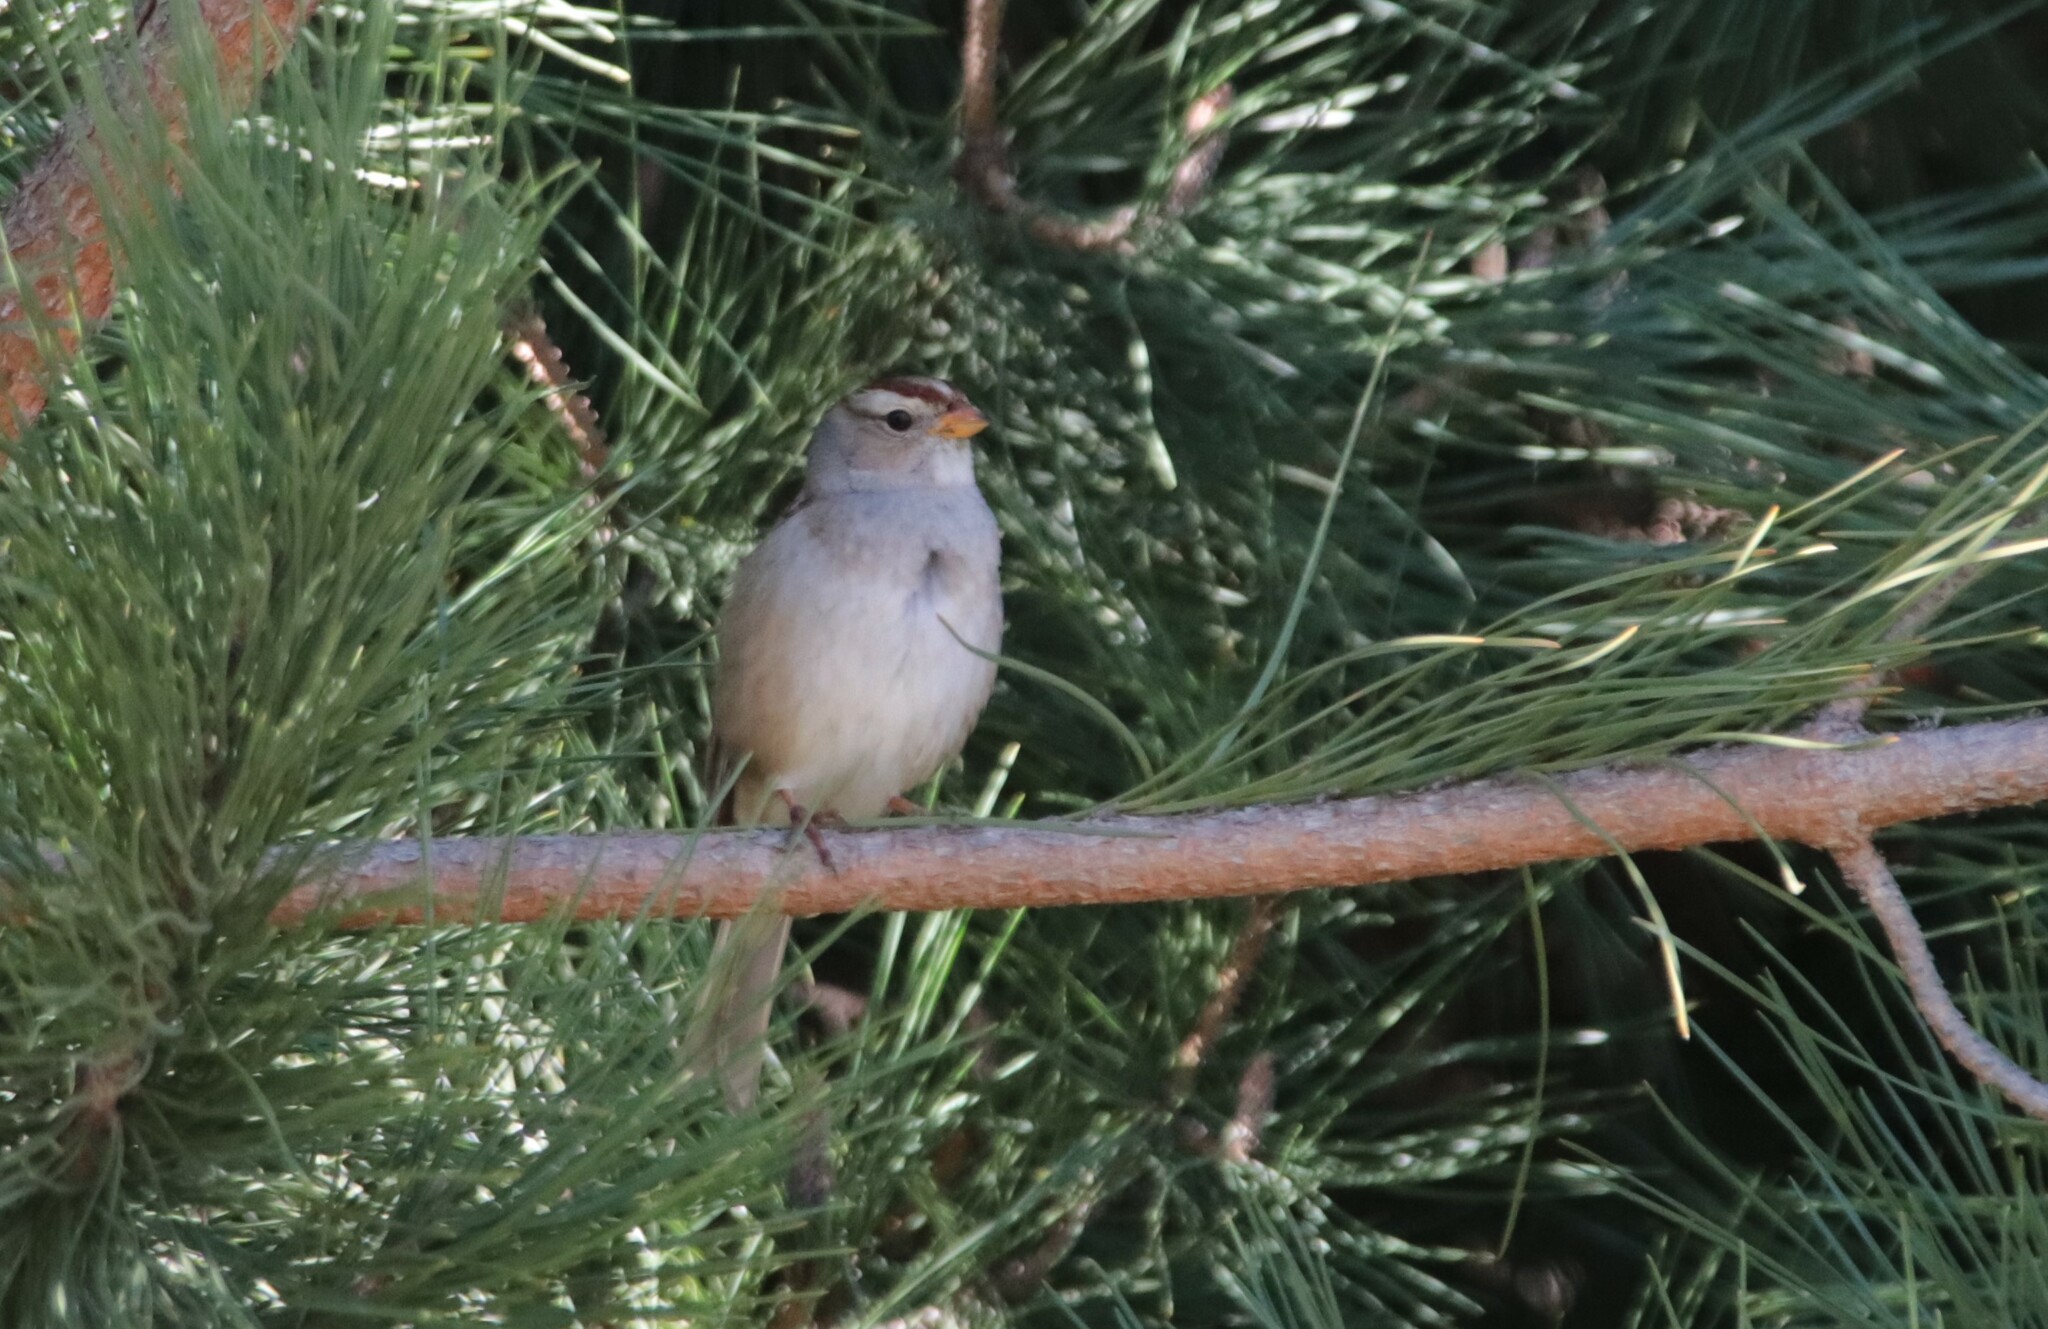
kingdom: Animalia
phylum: Chordata
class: Aves
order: Passeriformes
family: Passerellidae
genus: Zonotrichia
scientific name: Zonotrichia leucophrys
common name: White-crowned sparrow
